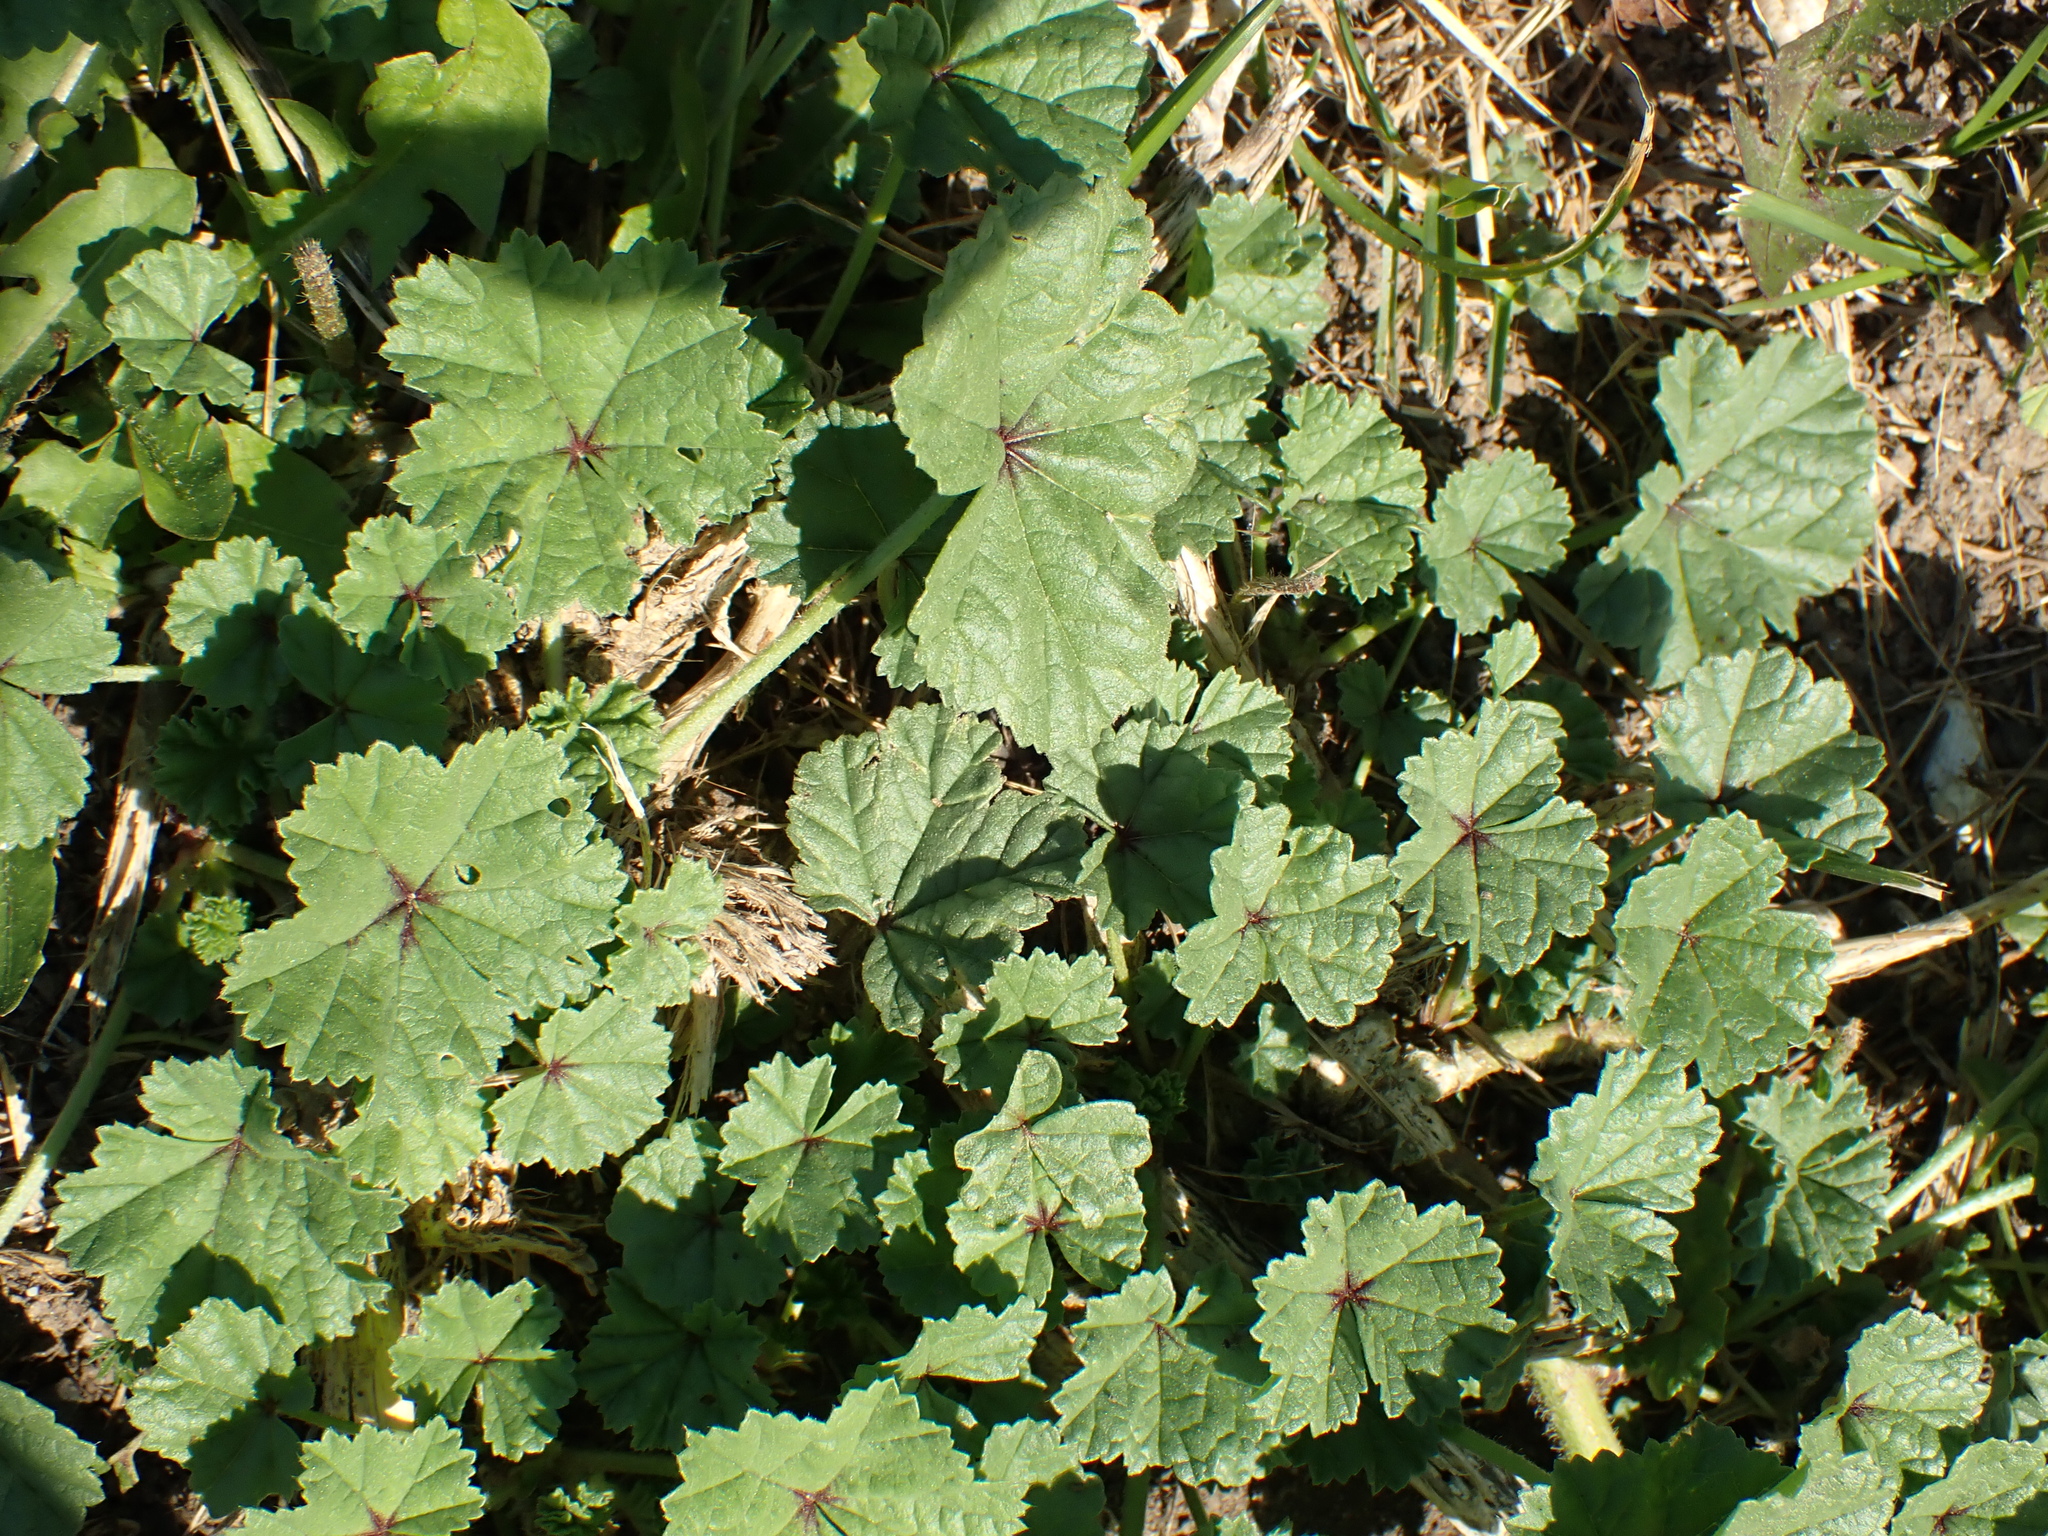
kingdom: Plantae
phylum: Tracheophyta
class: Magnoliopsida
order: Malvales
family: Malvaceae
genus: Malva
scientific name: Malva sylvestris
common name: Common mallow
